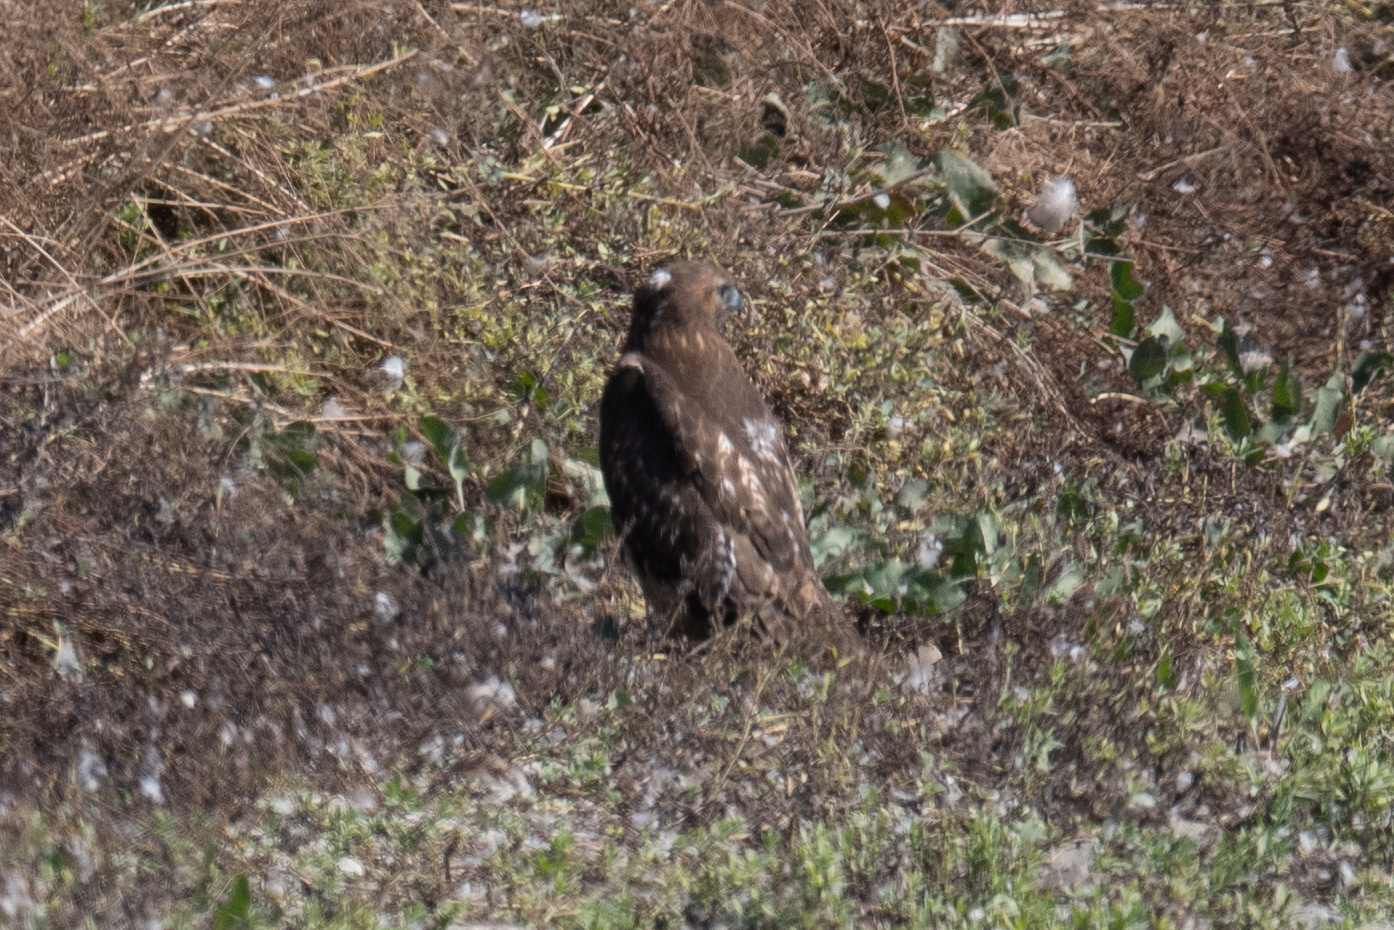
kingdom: Animalia
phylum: Chordata
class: Aves
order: Accipitriformes
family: Accipitridae
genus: Buteo
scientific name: Buteo jamaicensis
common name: Red-tailed hawk
